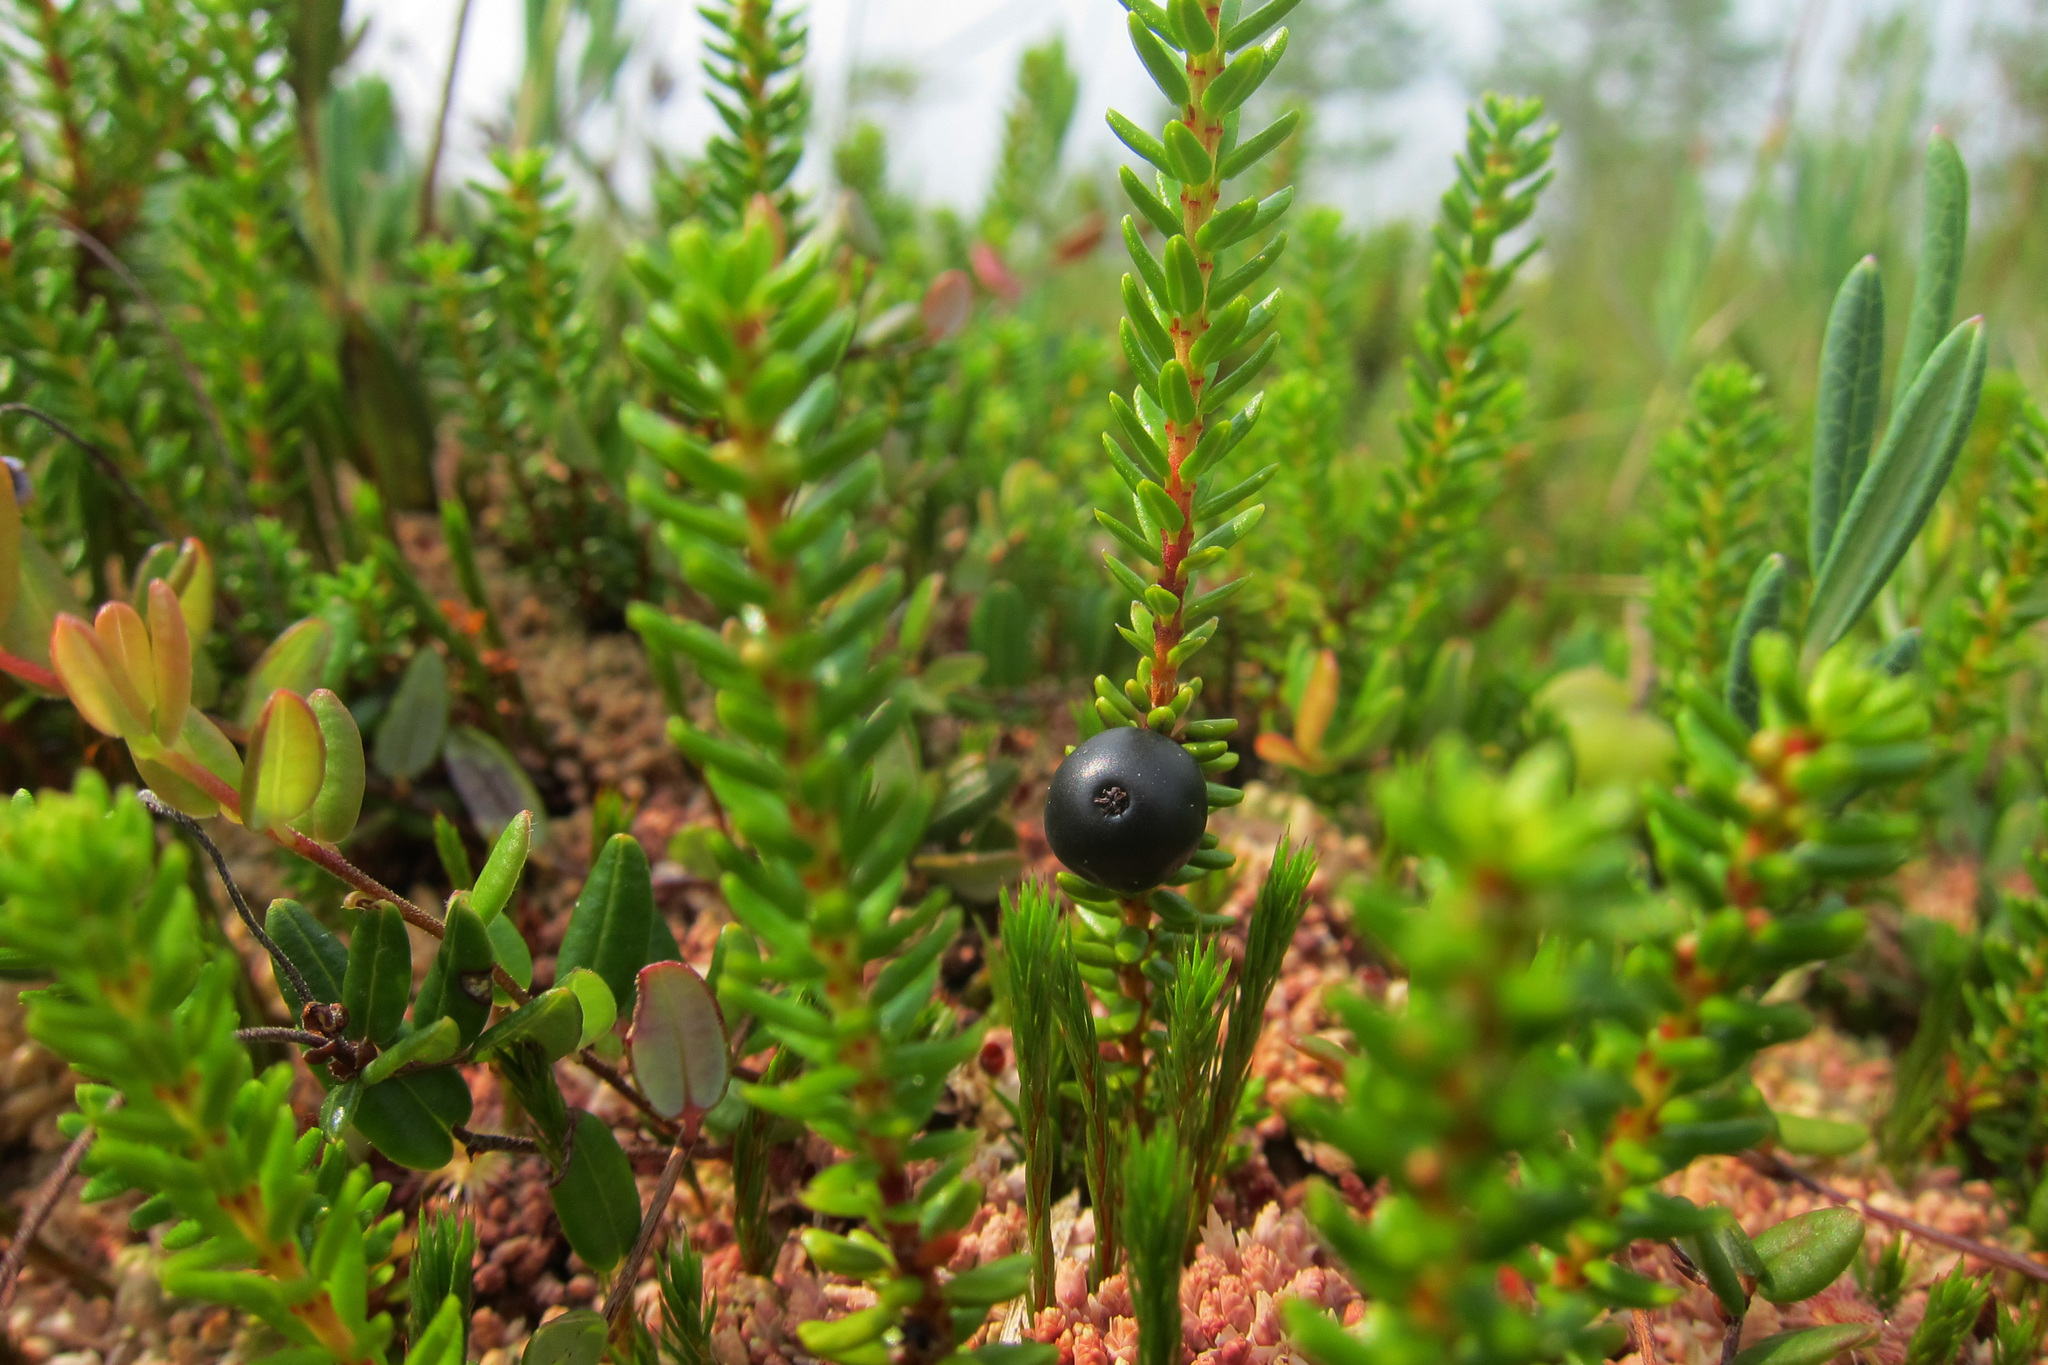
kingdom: Plantae
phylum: Tracheophyta
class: Magnoliopsida
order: Ericales
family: Ericaceae
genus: Empetrum
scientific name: Empetrum nigrum
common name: Black crowberry
